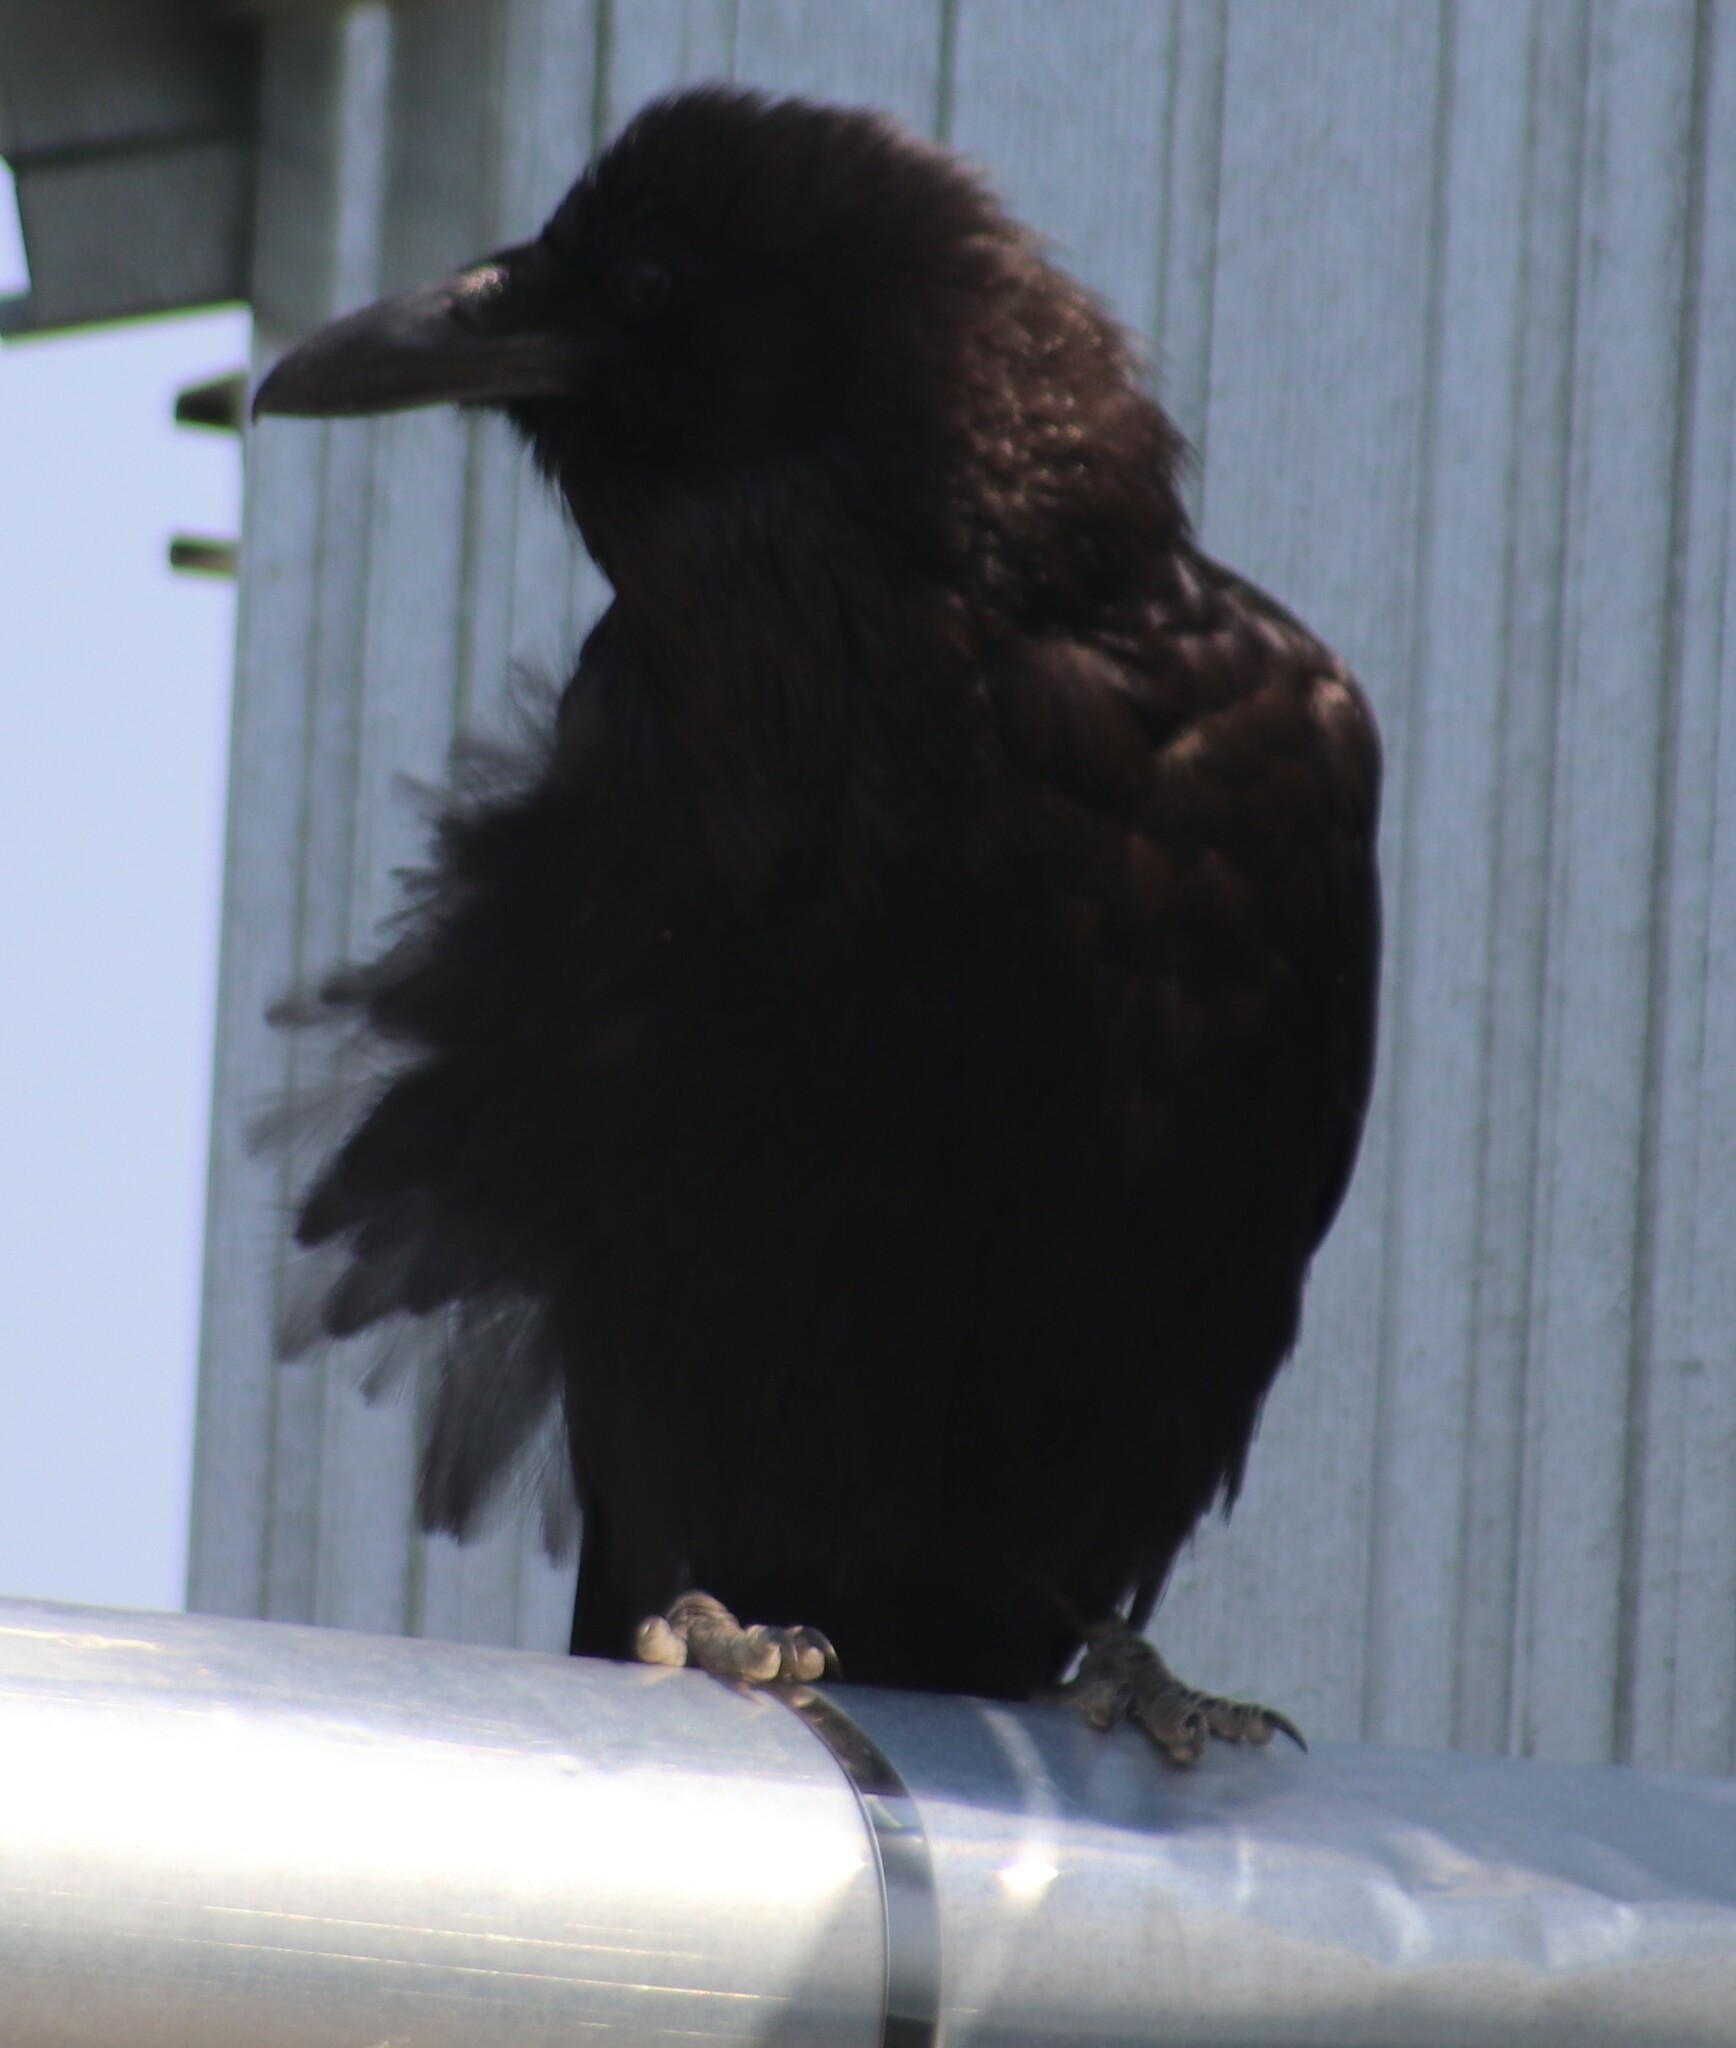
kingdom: Animalia
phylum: Chordata
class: Aves
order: Passeriformes
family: Corvidae
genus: Corvus
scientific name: Corvus corax
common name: Common raven
